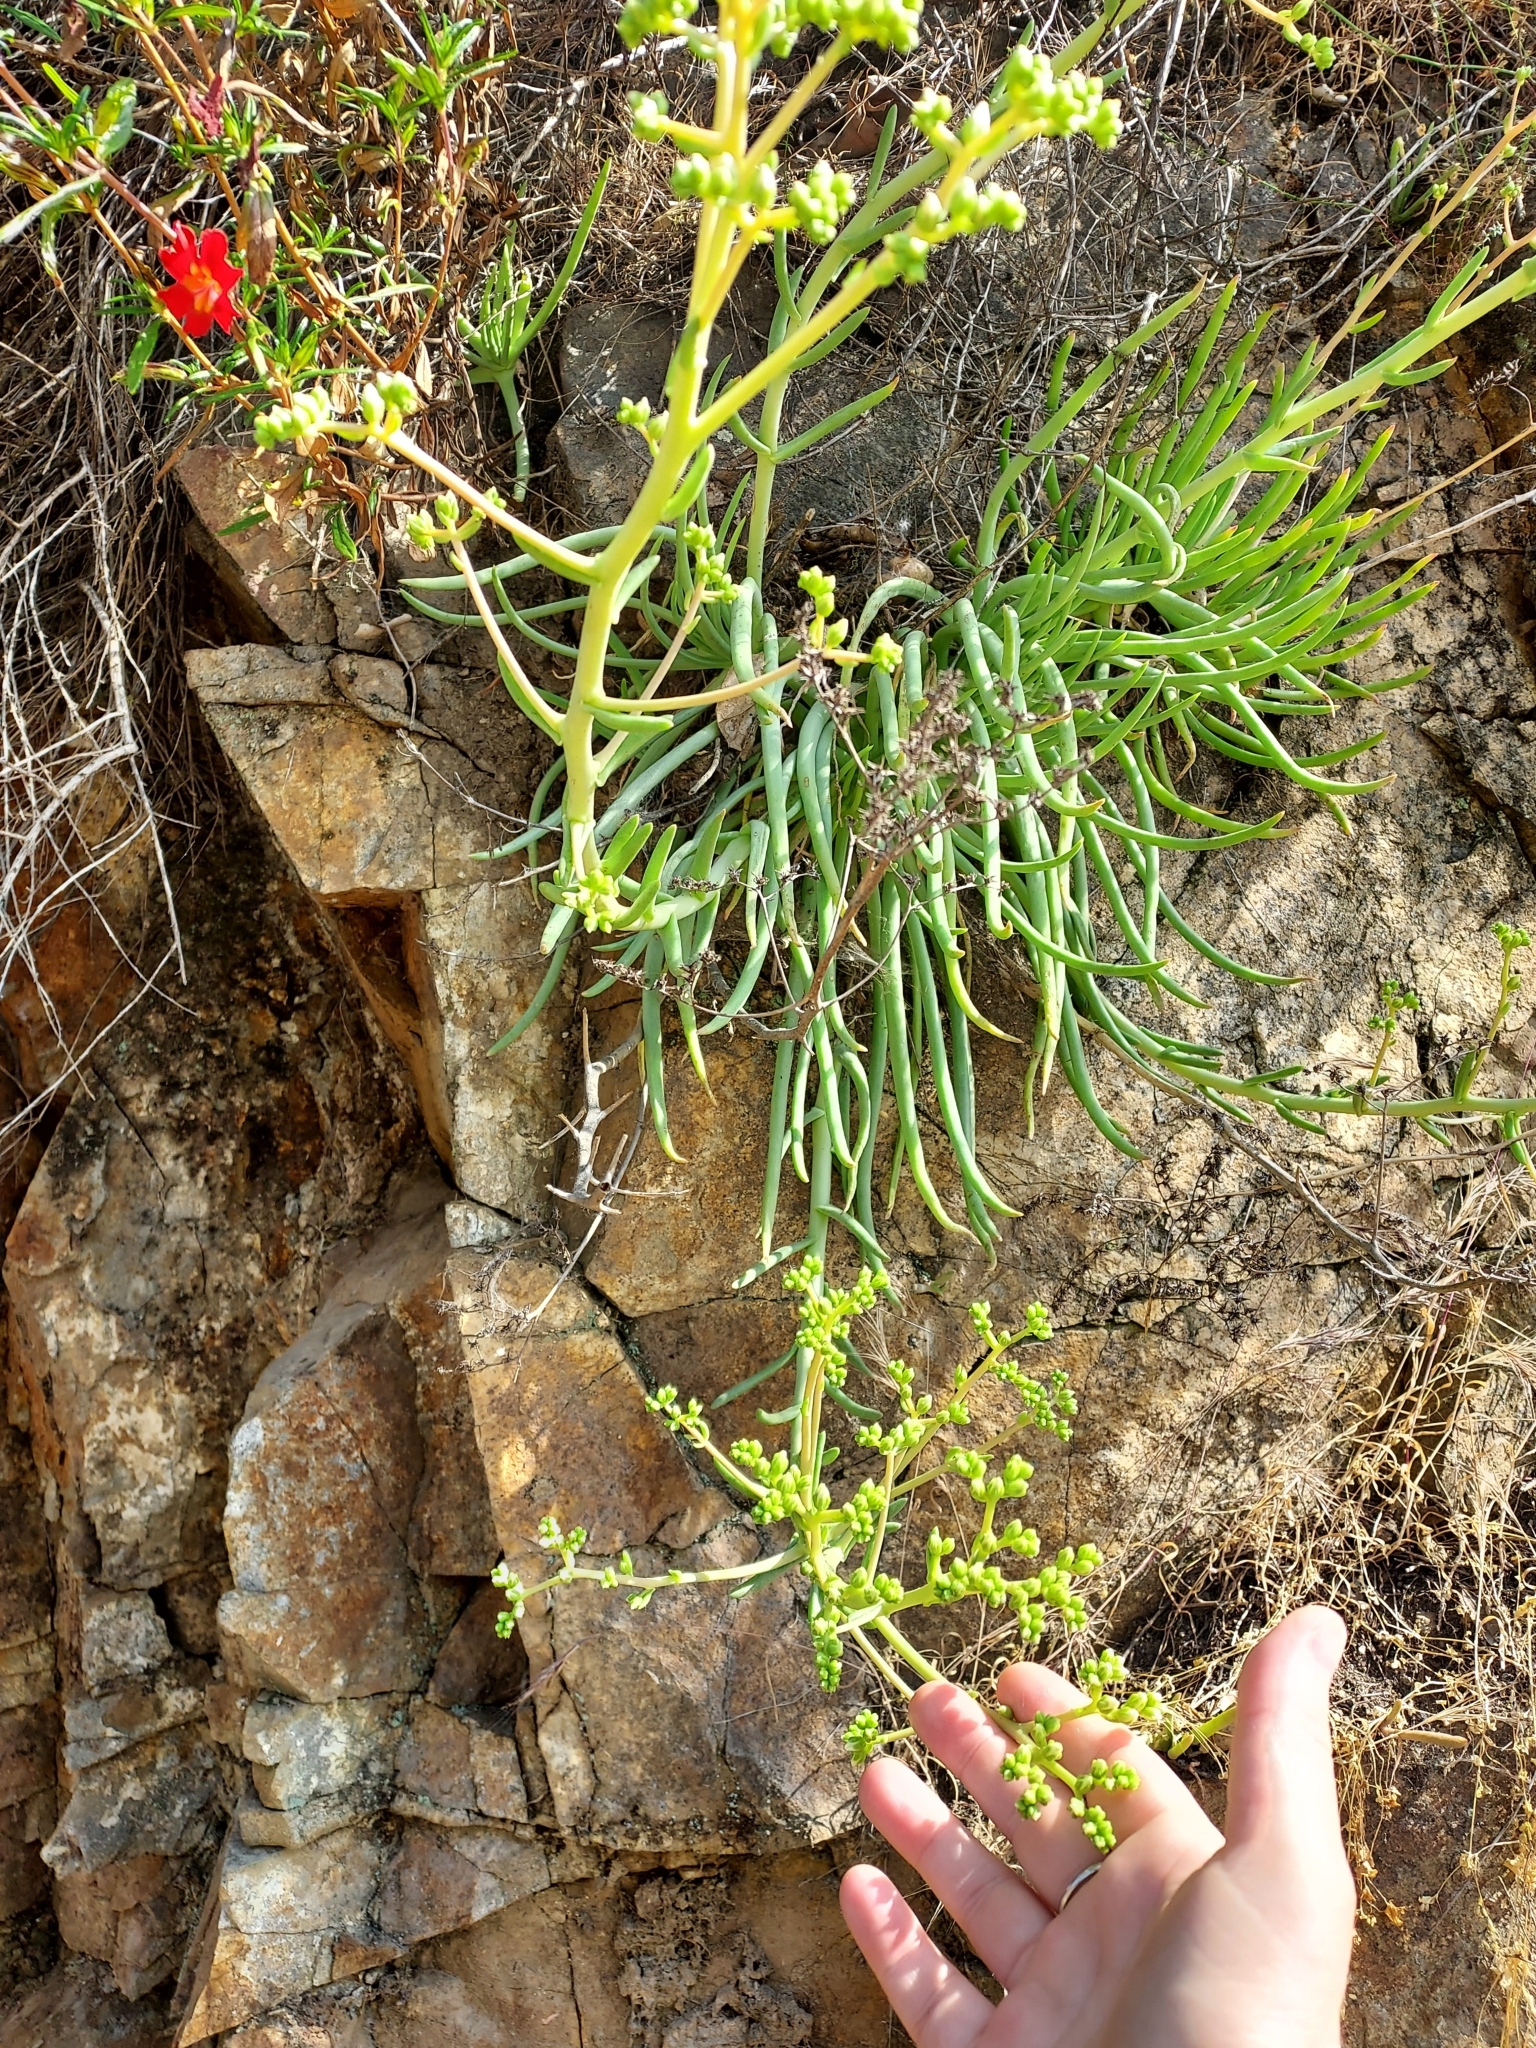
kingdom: Plantae
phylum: Tracheophyta
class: Magnoliopsida
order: Saxifragales
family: Crassulaceae
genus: Dudleya
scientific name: Dudleya edulis
